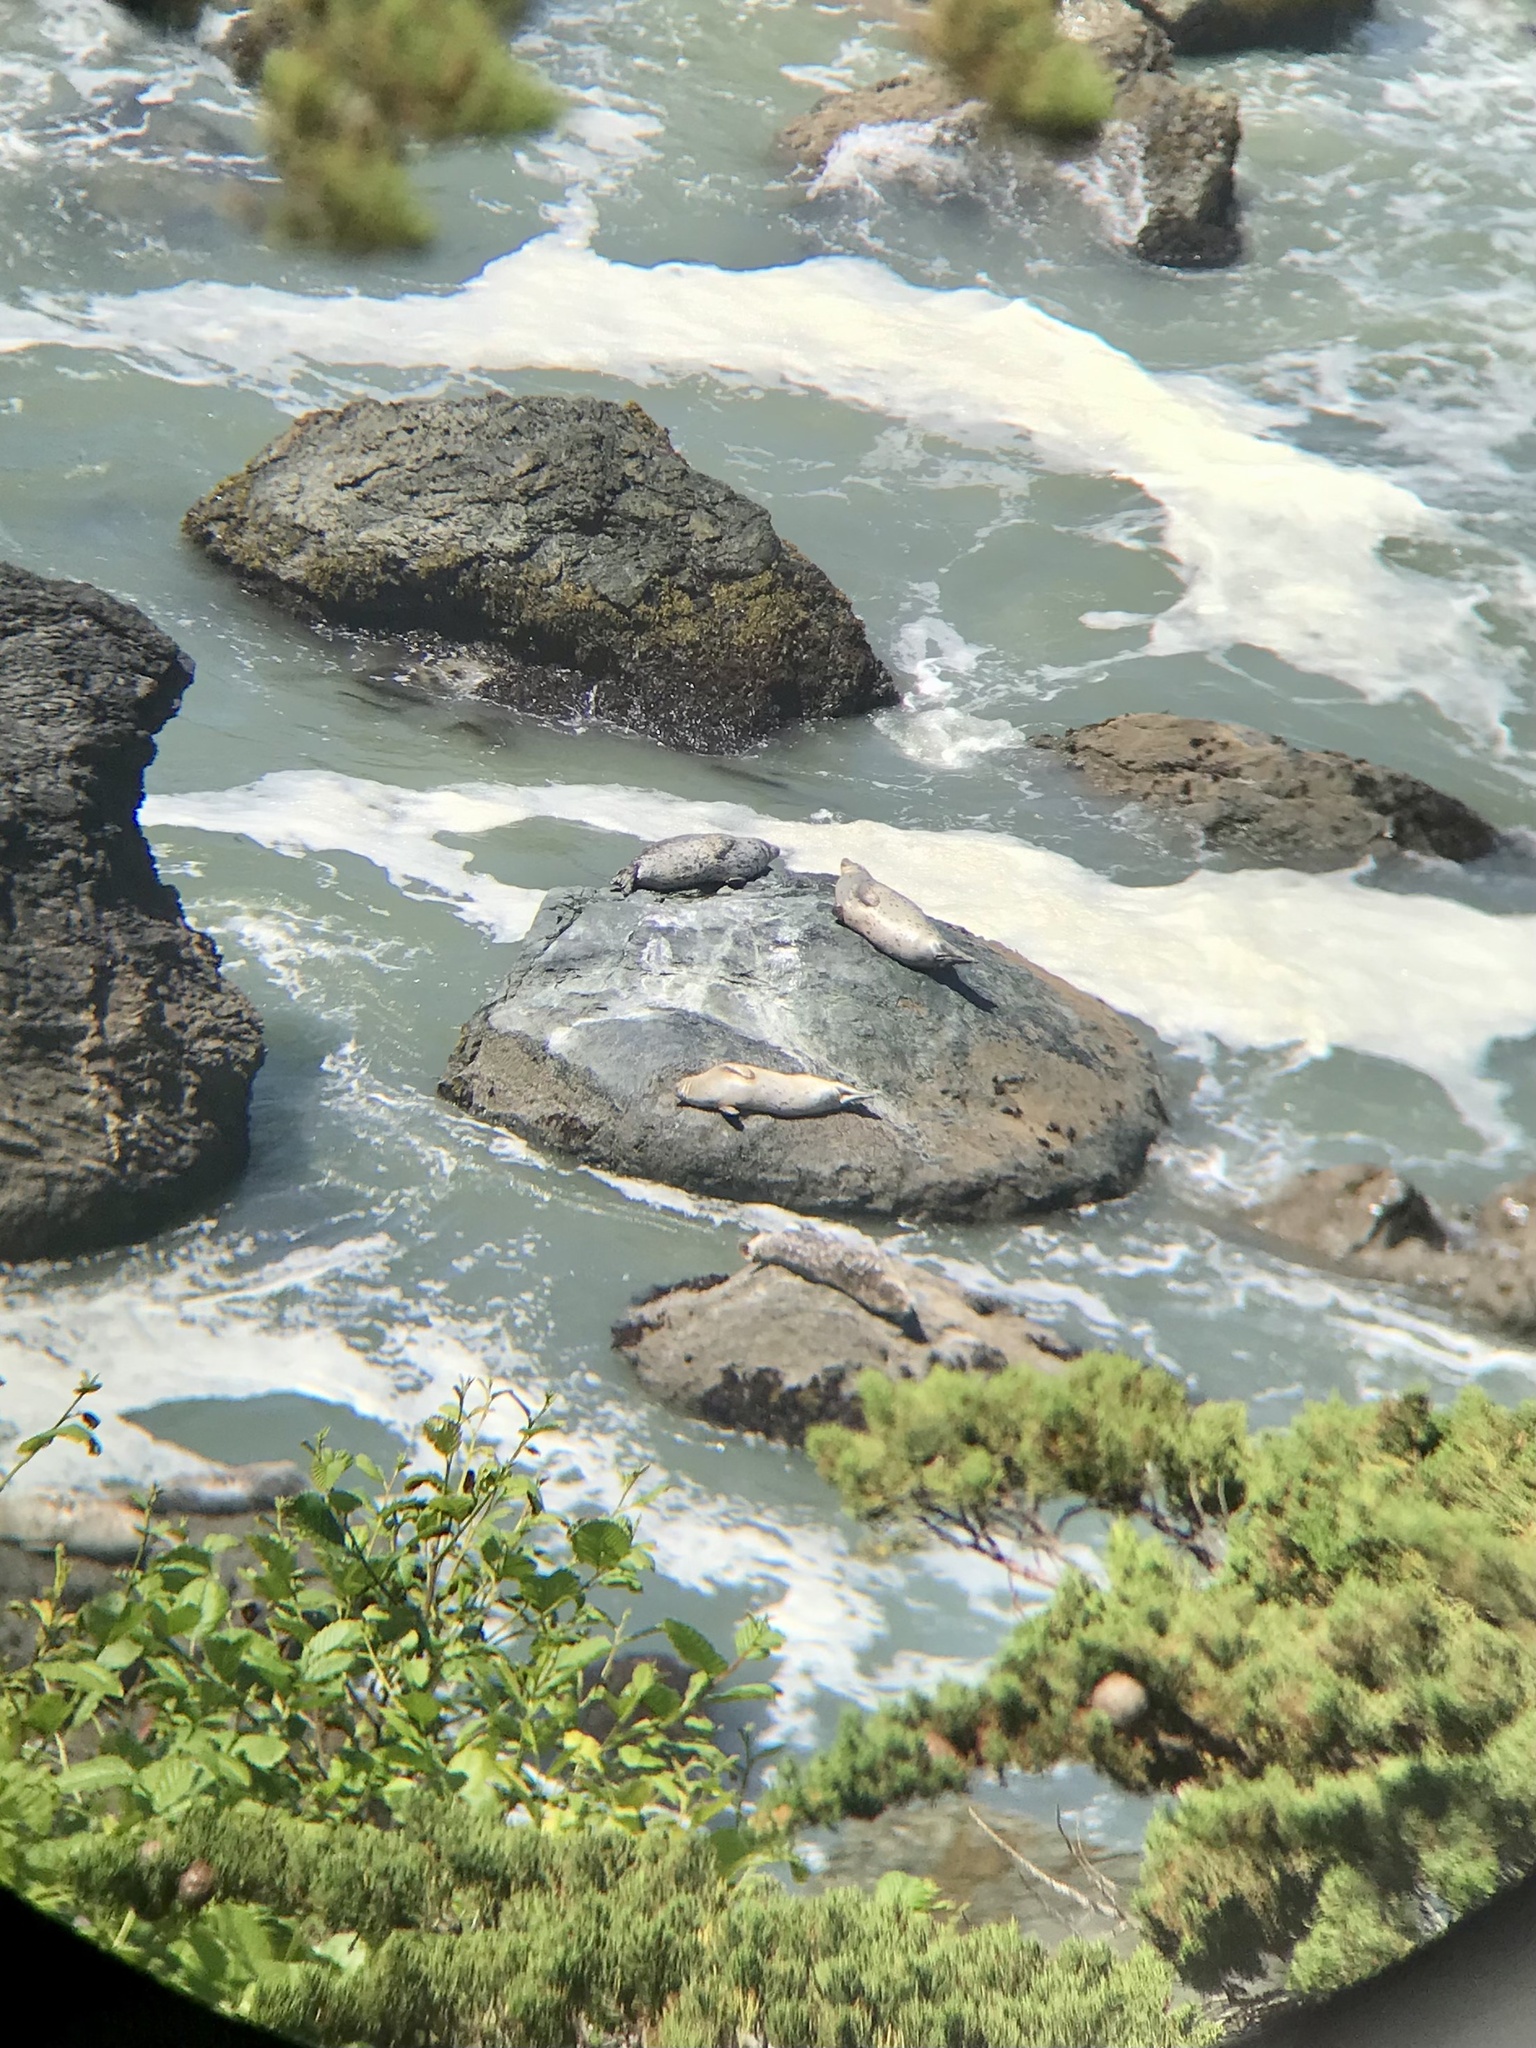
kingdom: Animalia
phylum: Chordata
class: Mammalia
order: Carnivora
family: Phocidae
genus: Phoca
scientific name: Phoca vitulina
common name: Harbor seal
